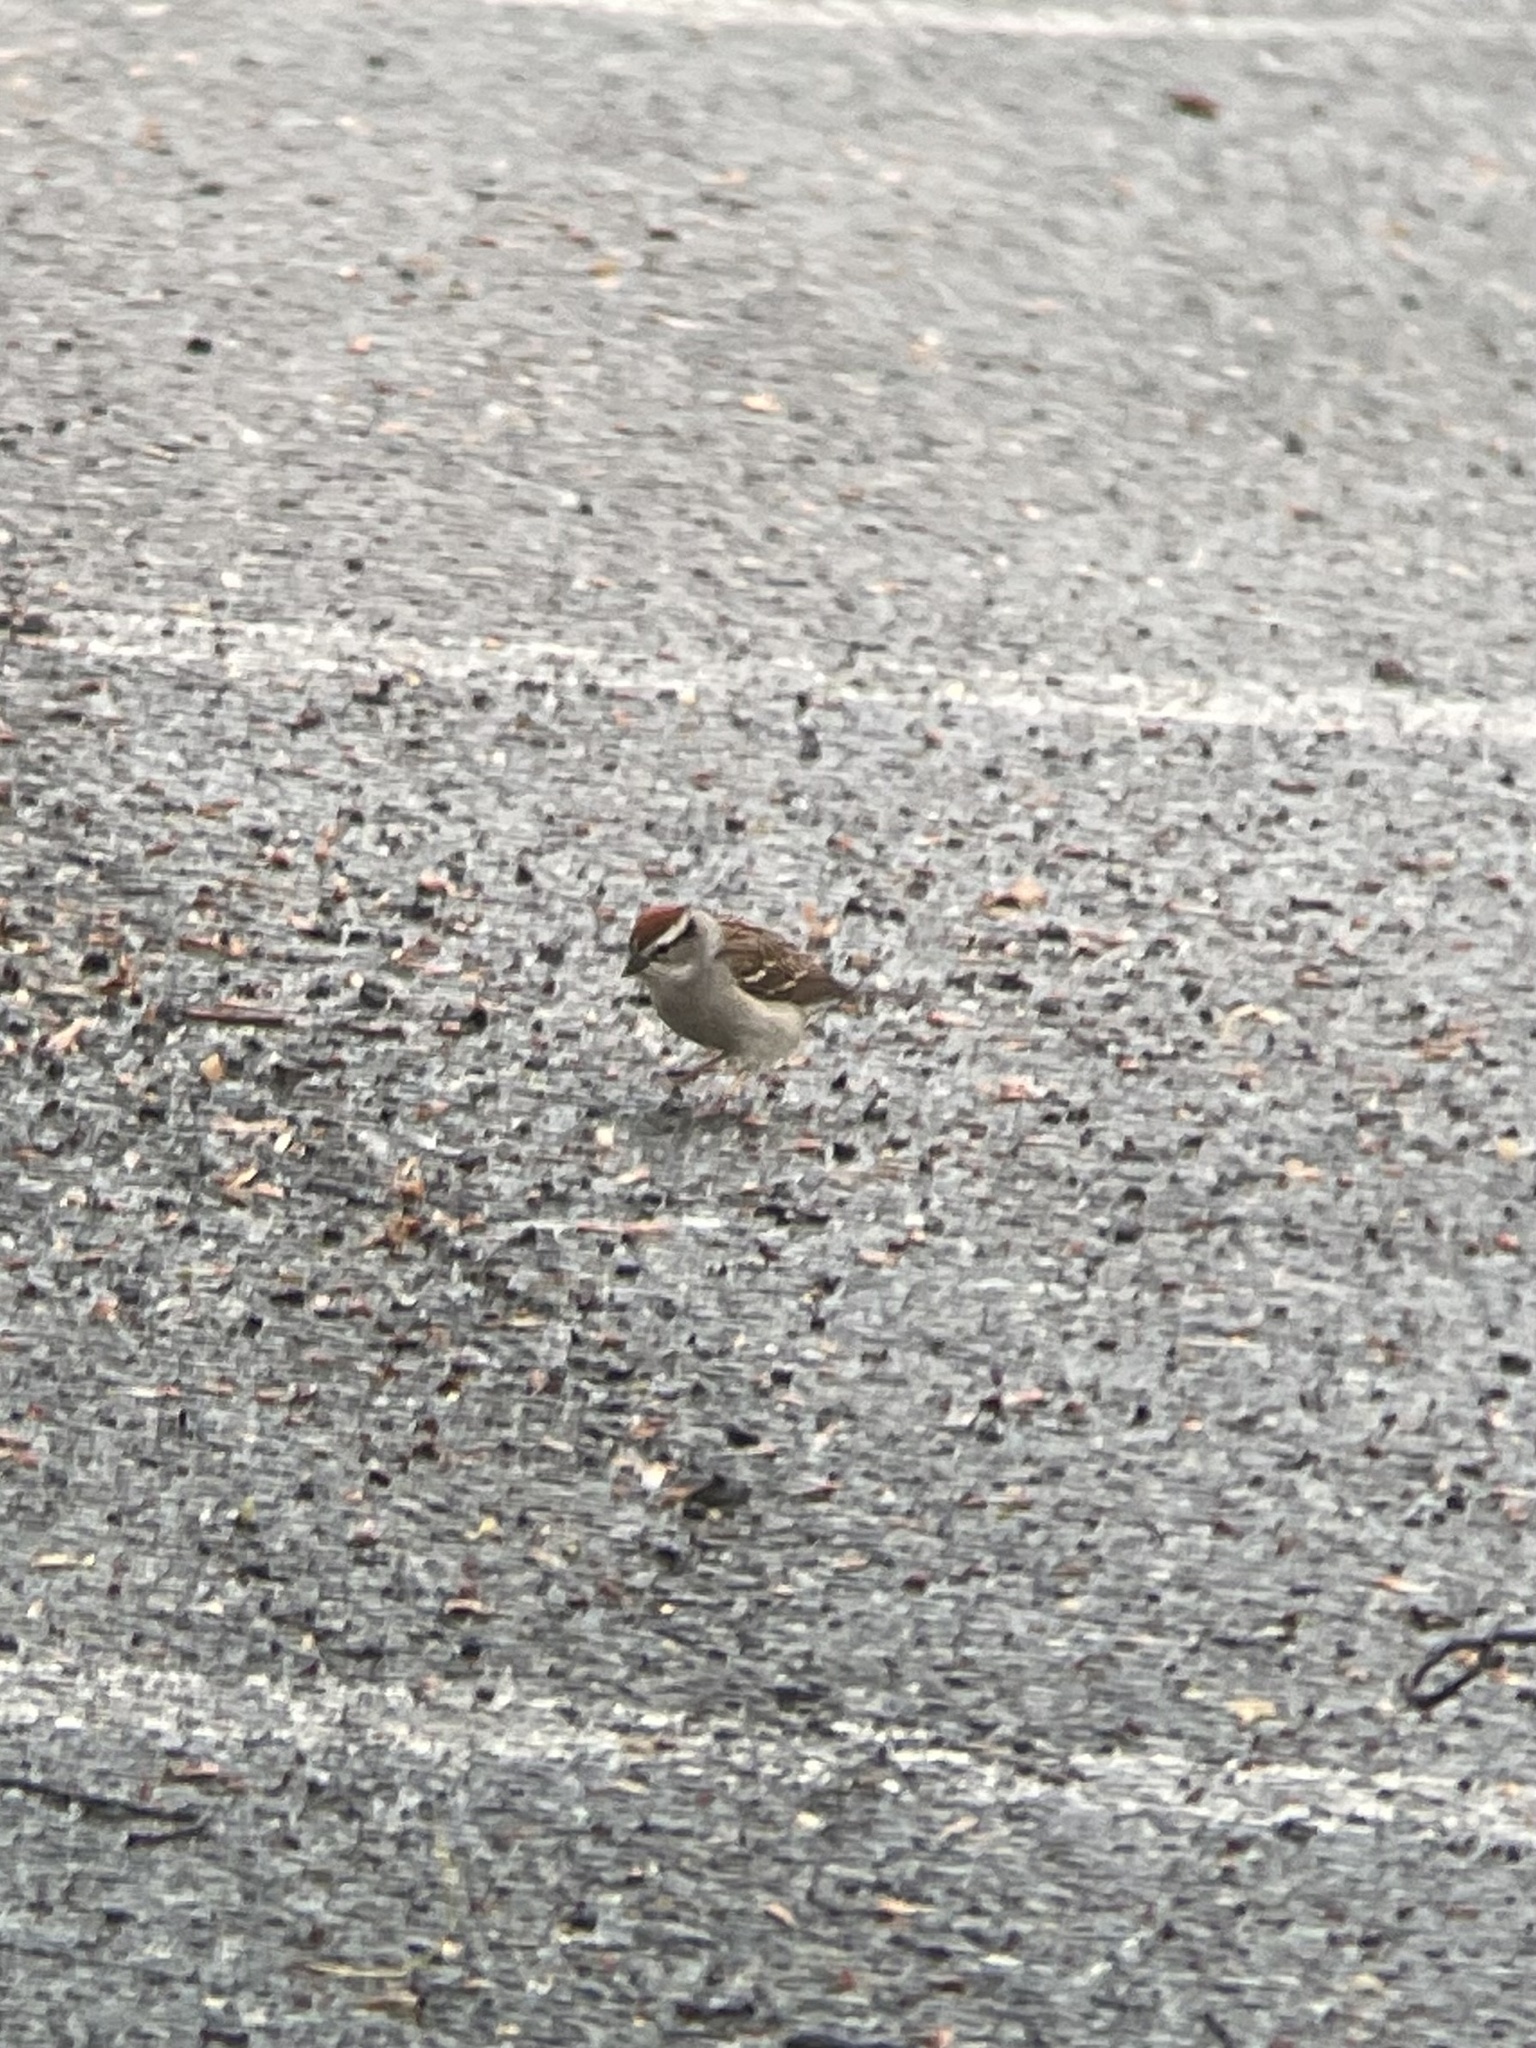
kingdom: Animalia
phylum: Chordata
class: Aves
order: Passeriformes
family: Passerellidae
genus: Spizella
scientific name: Spizella passerina
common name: Chipping sparrow
